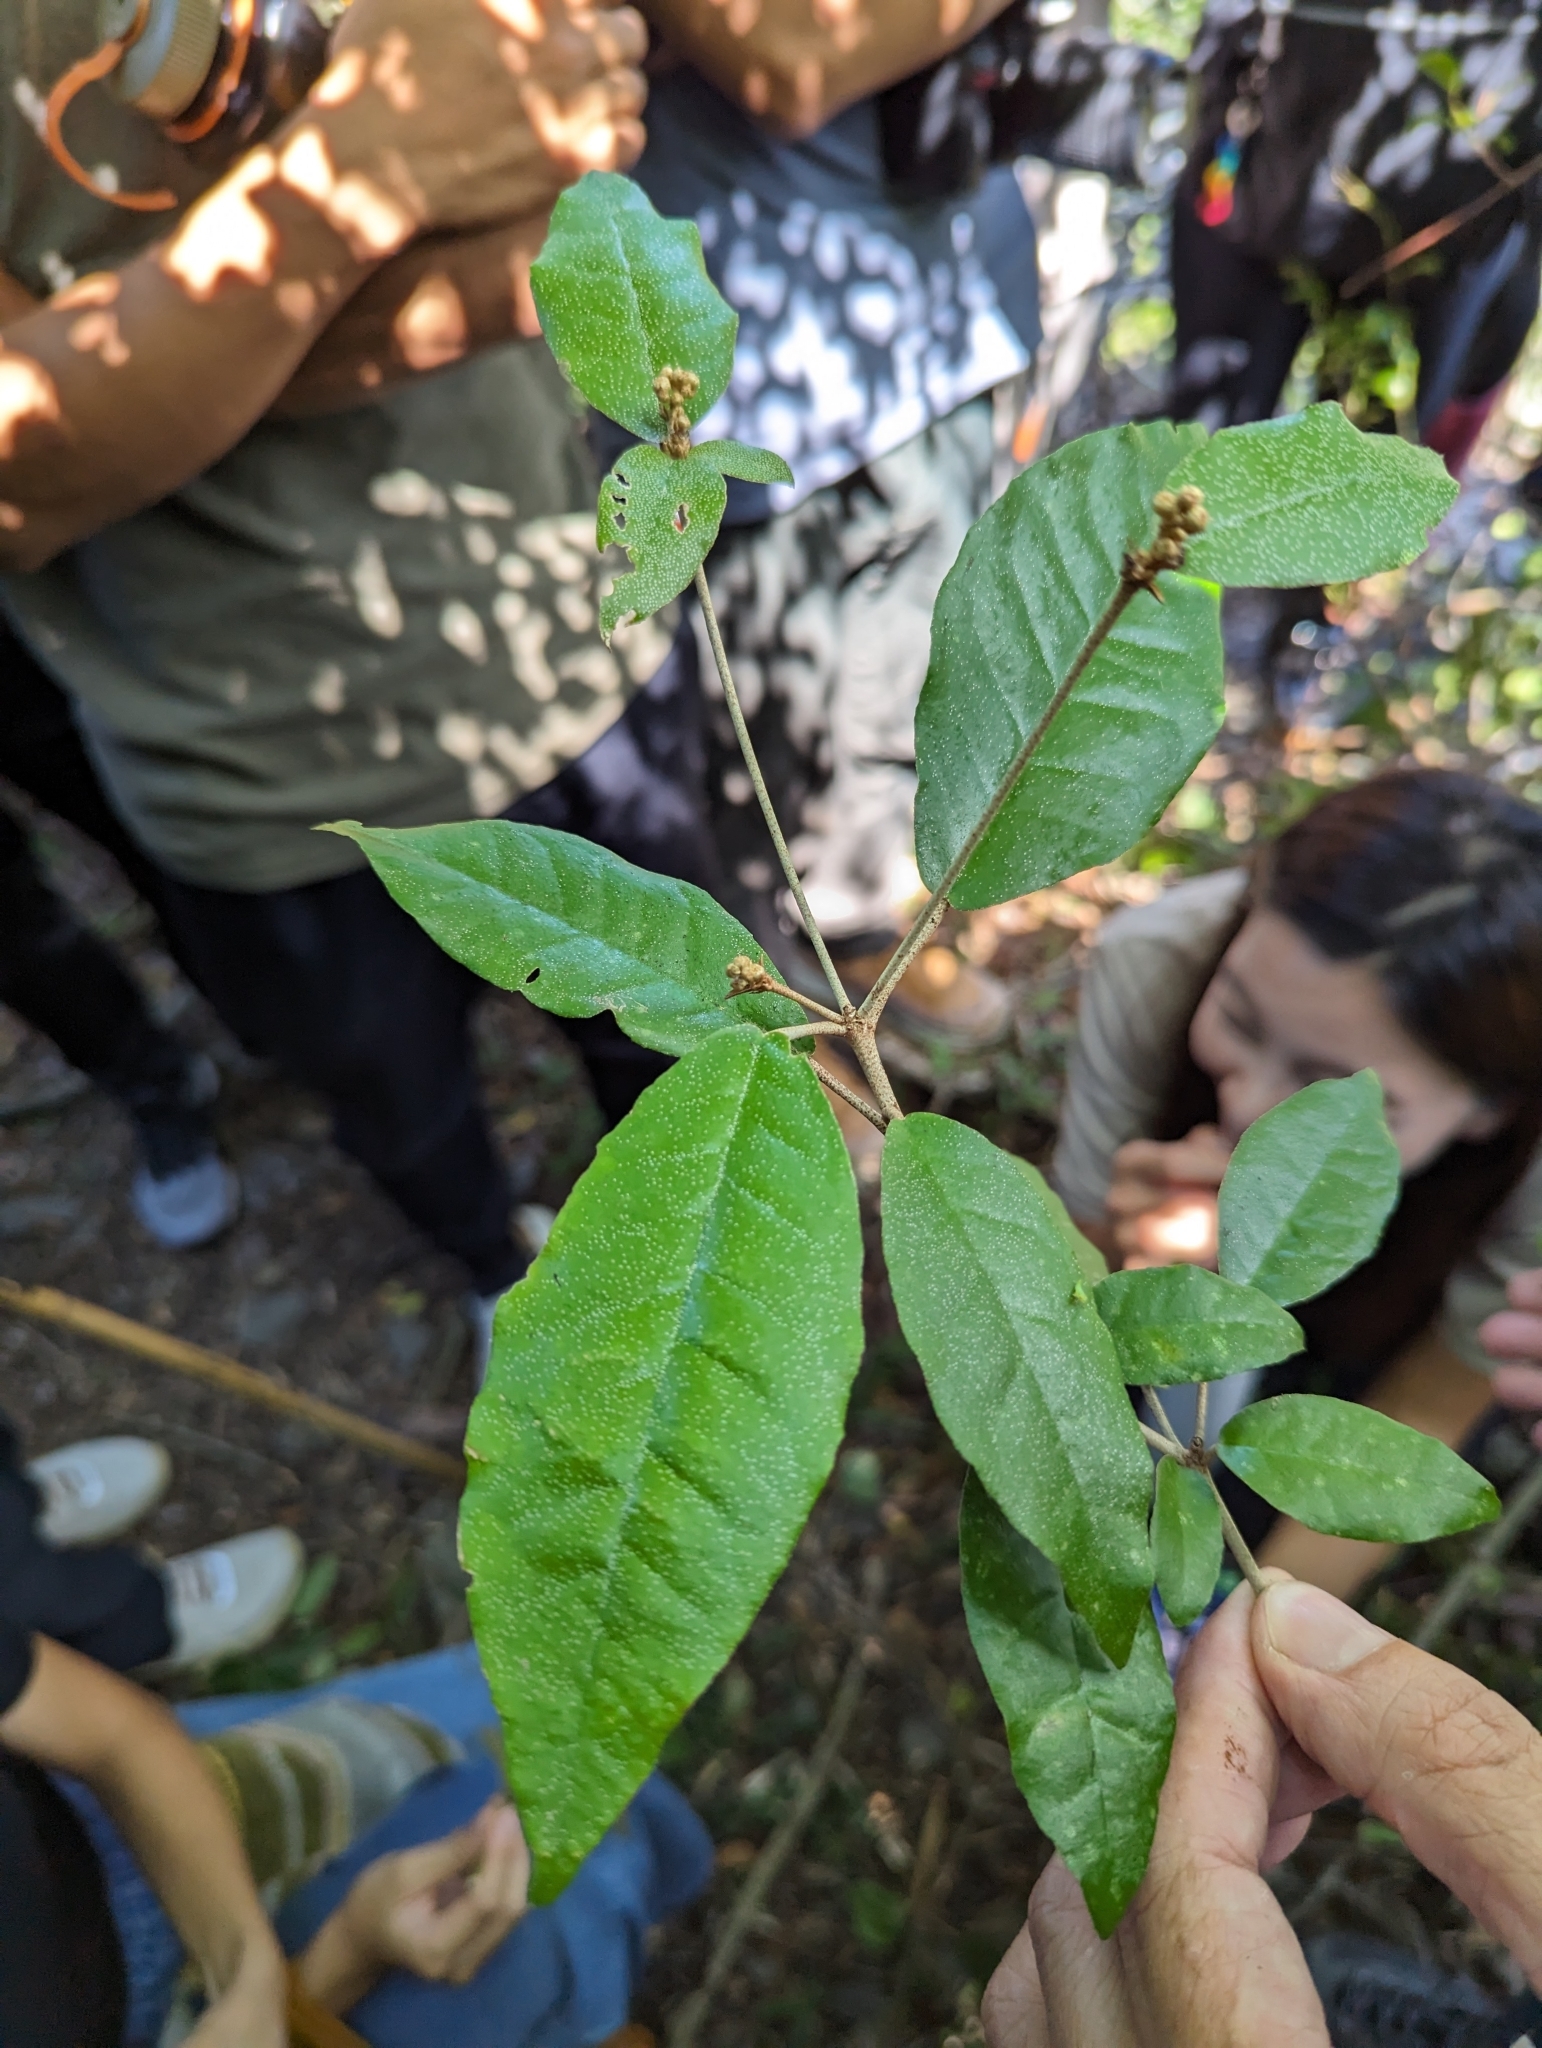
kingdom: Plantae
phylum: Tracheophyta
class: Magnoliopsida
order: Malpighiales
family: Euphorbiaceae
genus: Croton
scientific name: Croton cascarilloides
